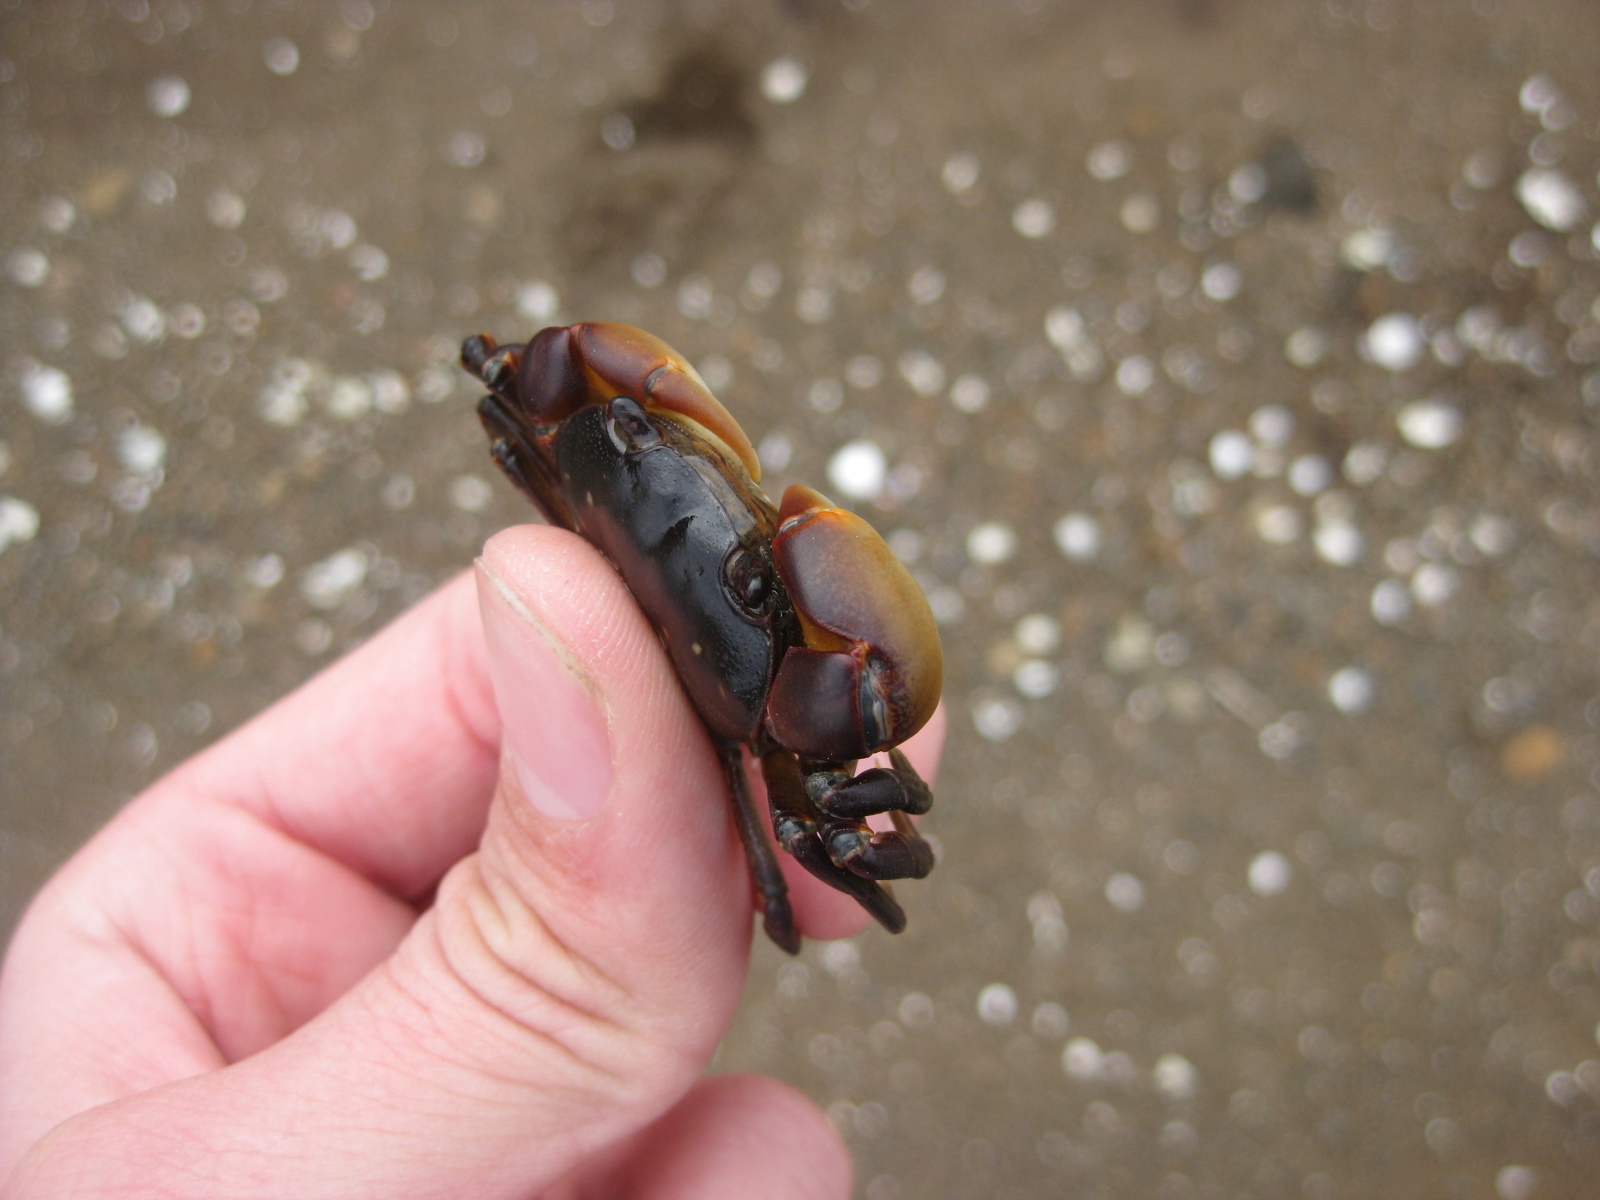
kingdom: Animalia
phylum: Arthropoda
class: Malacostraca
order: Decapoda
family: Varunidae
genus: Cyclograpsus
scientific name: Cyclograpsus lavauxi
